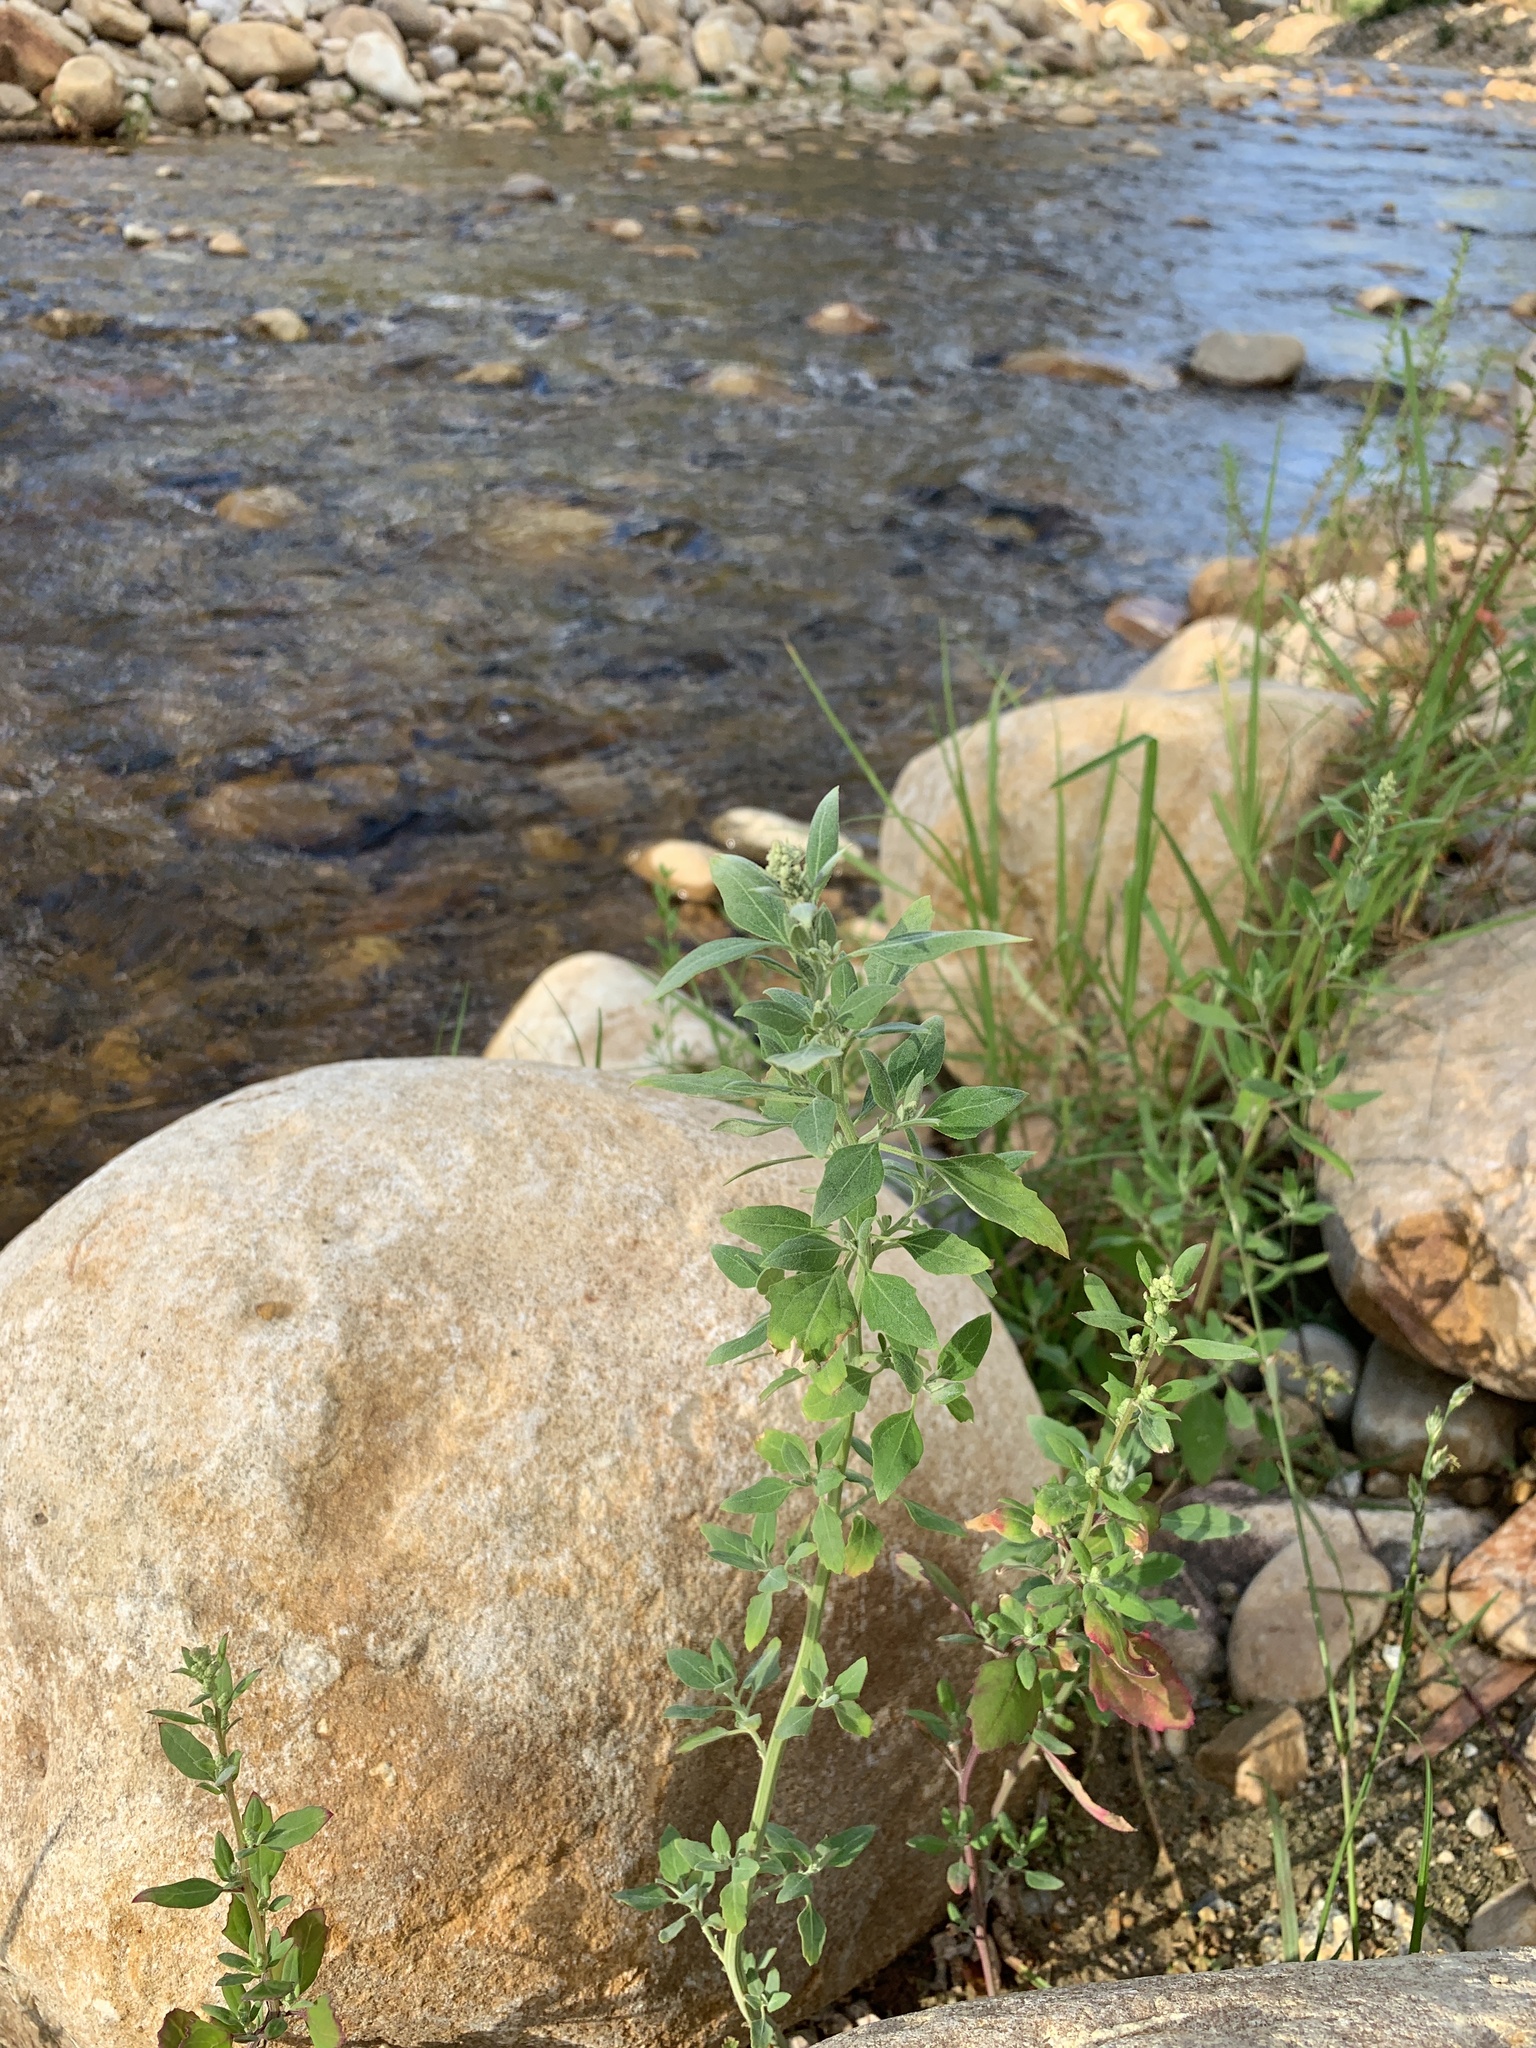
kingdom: Plantae
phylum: Tracheophyta
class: Magnoliopsida
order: Caryophyllales
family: Amaranthaceae
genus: Chenopodium
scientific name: Chenopodium album
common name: Fat-hen
